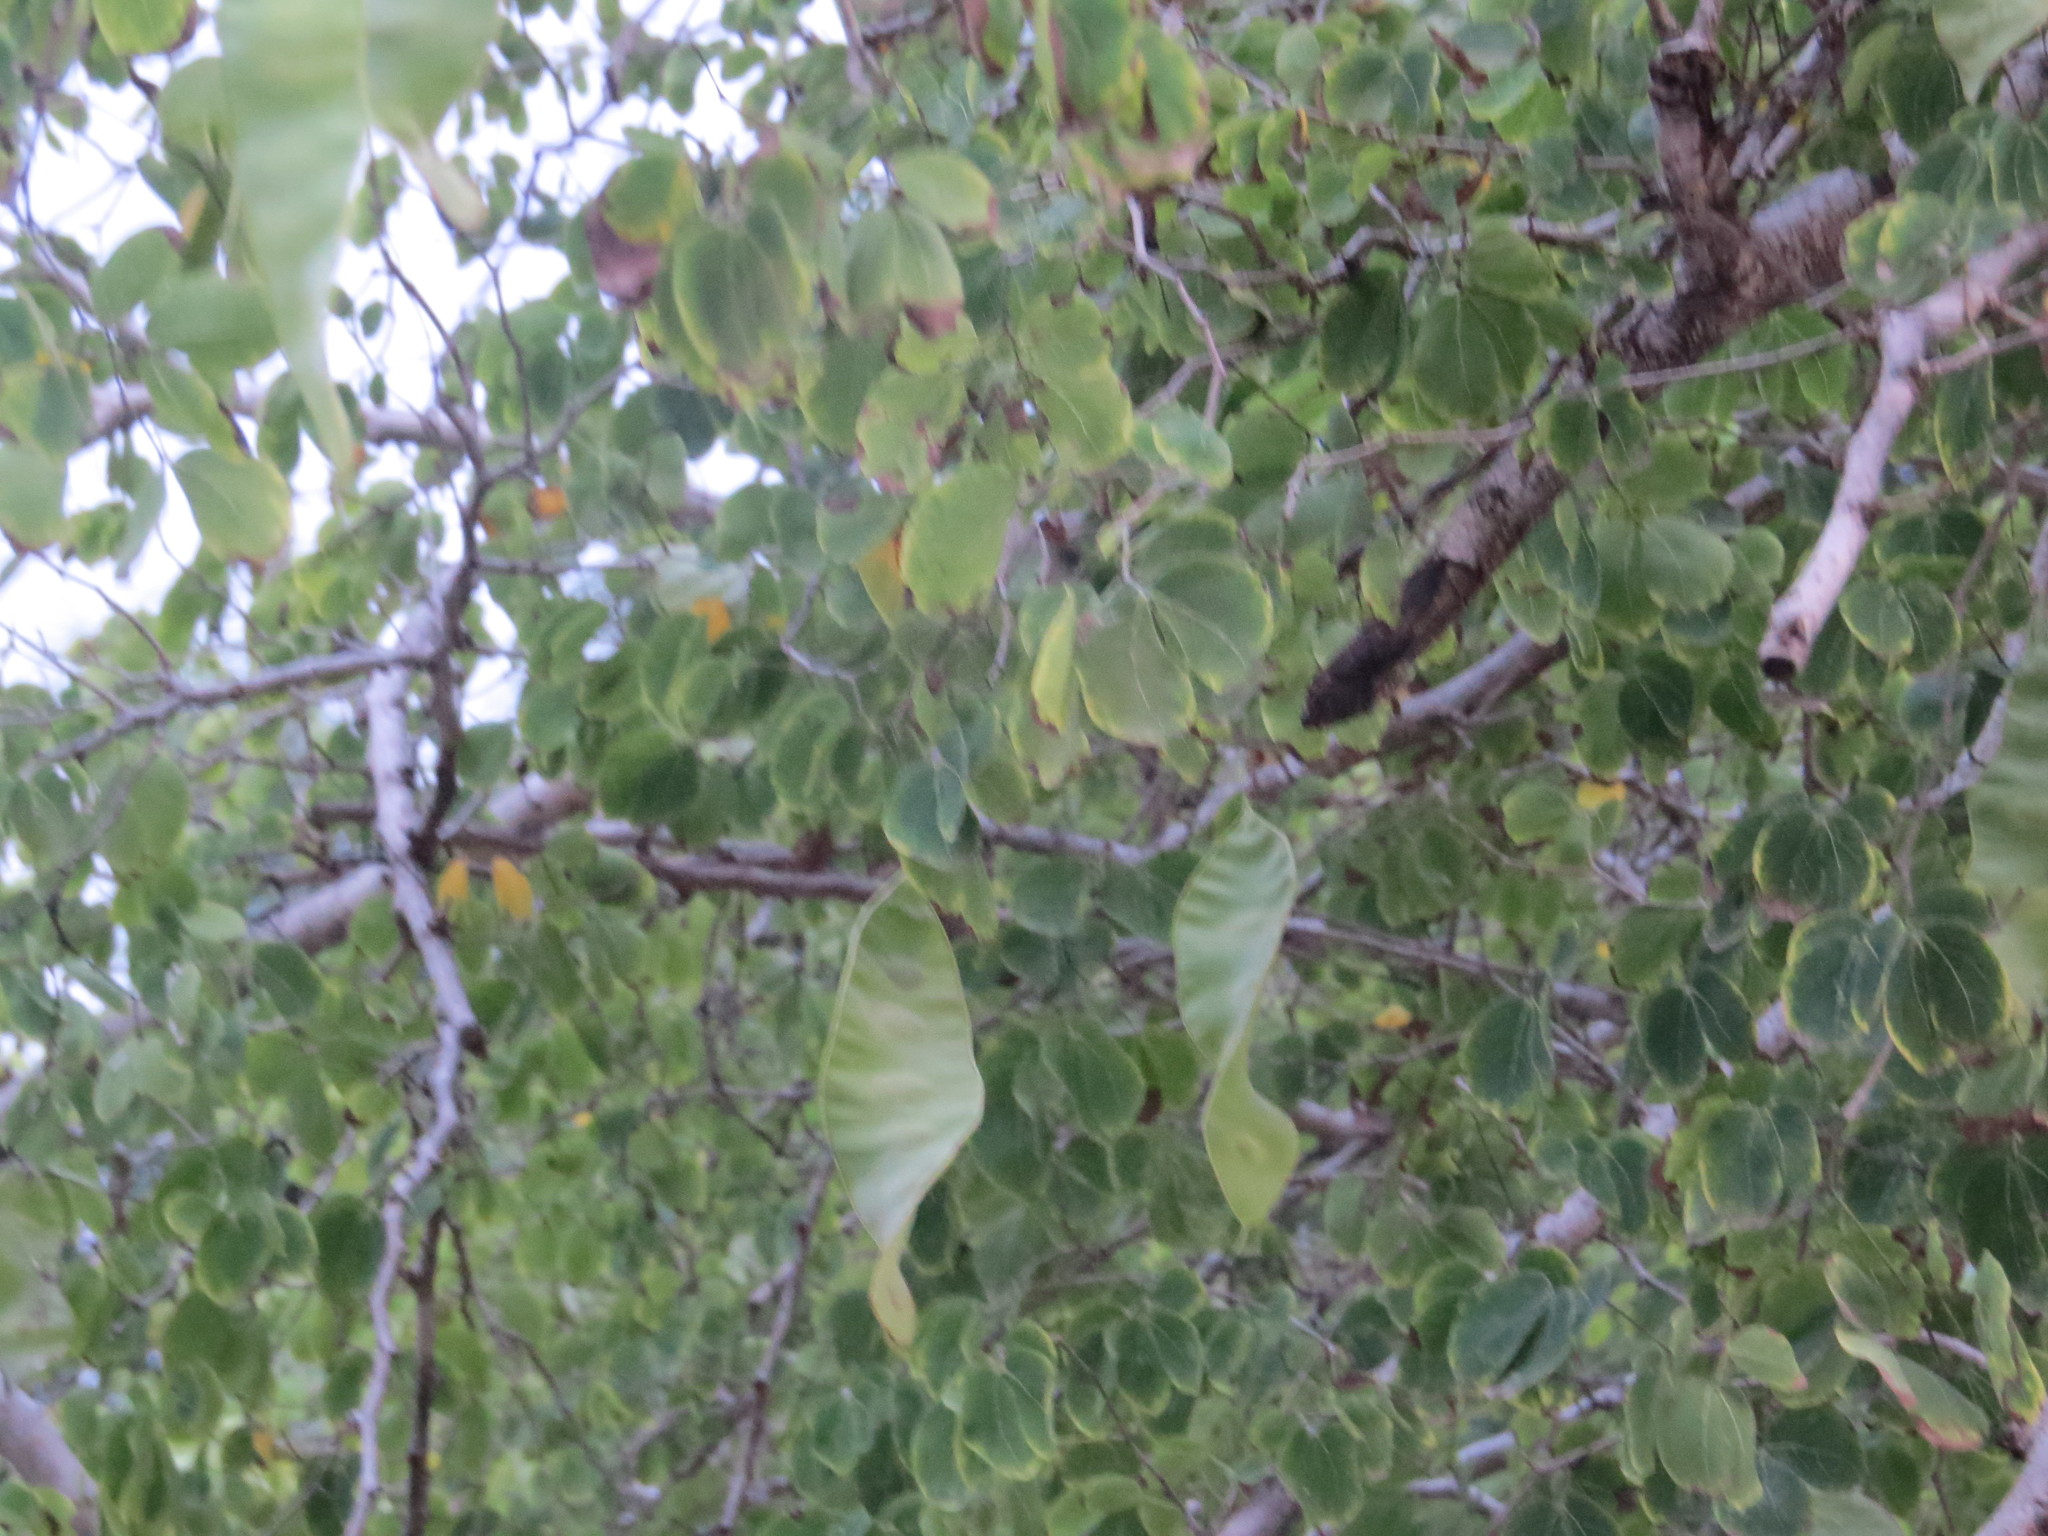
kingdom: Plantae
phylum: Tracheophyta
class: Magnoliopsida
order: Fabales
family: Fabaceae
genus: Lysiloma
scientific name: Lysiloma tergeminum
